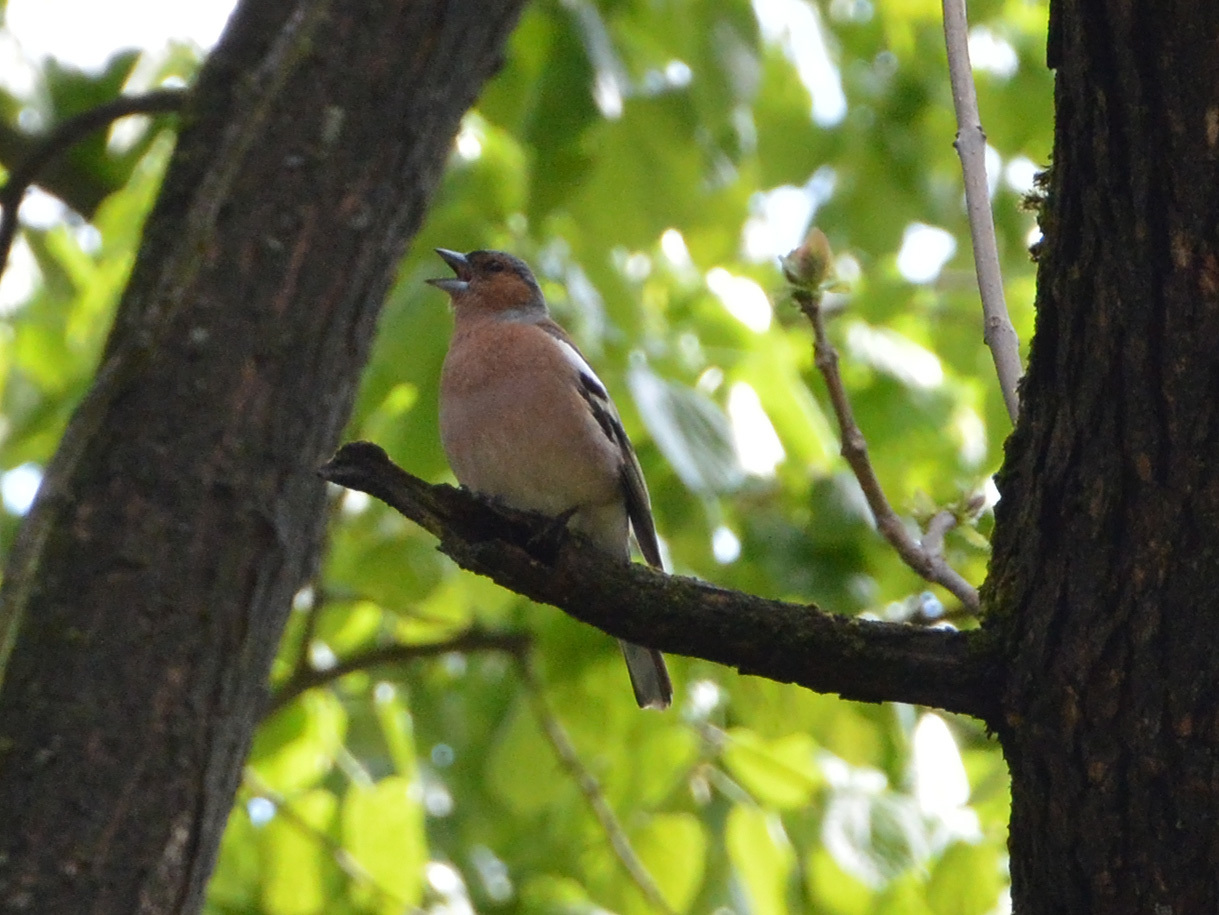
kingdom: Animalia
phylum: Chordata
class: Aves
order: Passeriformes
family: Fringillidae
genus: Fringilla
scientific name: Fringilla coelebs
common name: Common chaffinch
